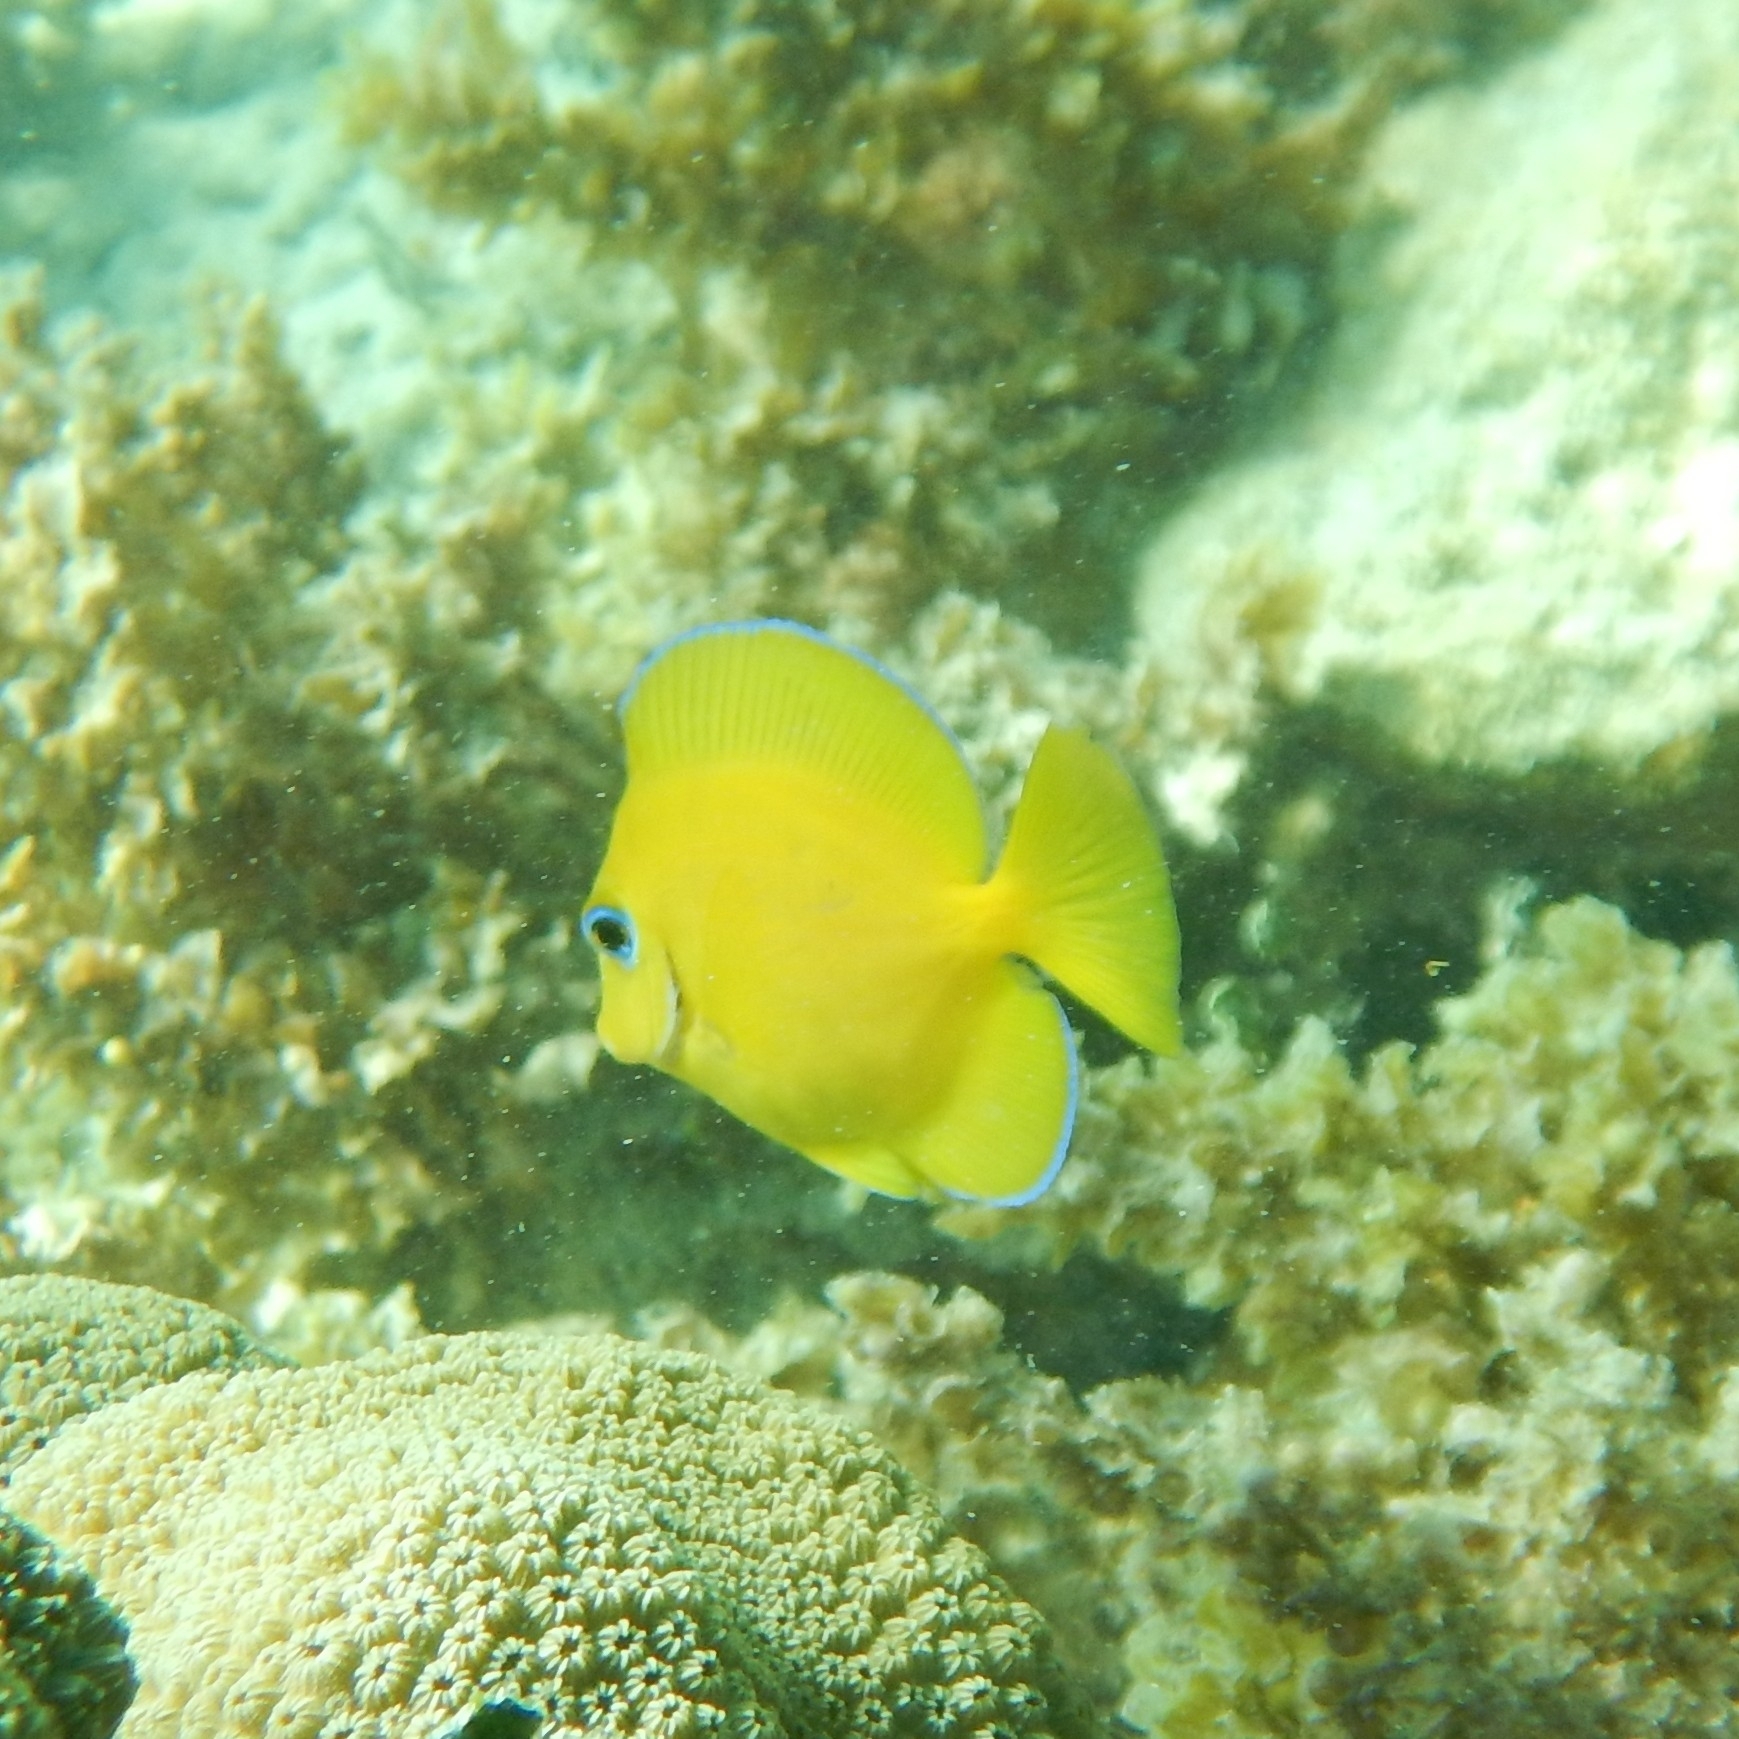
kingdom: Animalia
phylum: Chordata
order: Perciformes
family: Acanthuridae
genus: Acanthurus
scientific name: Acanthurus coeruleus
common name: Blue tang
